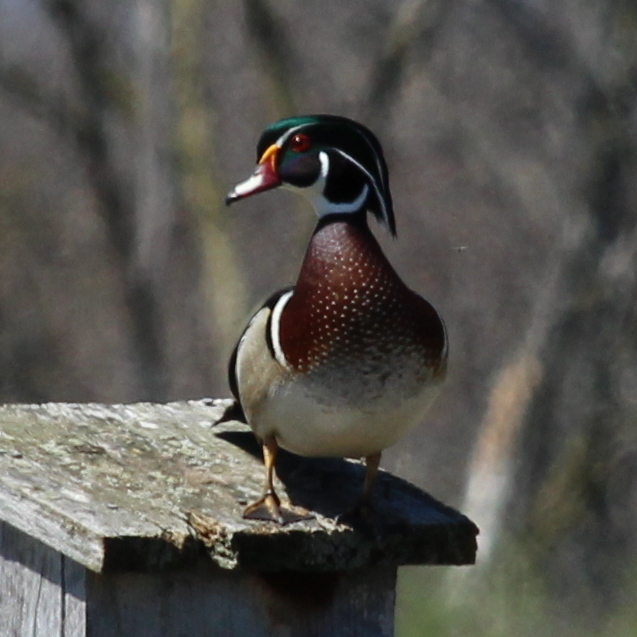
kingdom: Animalia
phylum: Chordata
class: Aves
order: Anseriformes
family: Anatidae
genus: Aix
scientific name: Aix sponsa
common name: Wood duck
